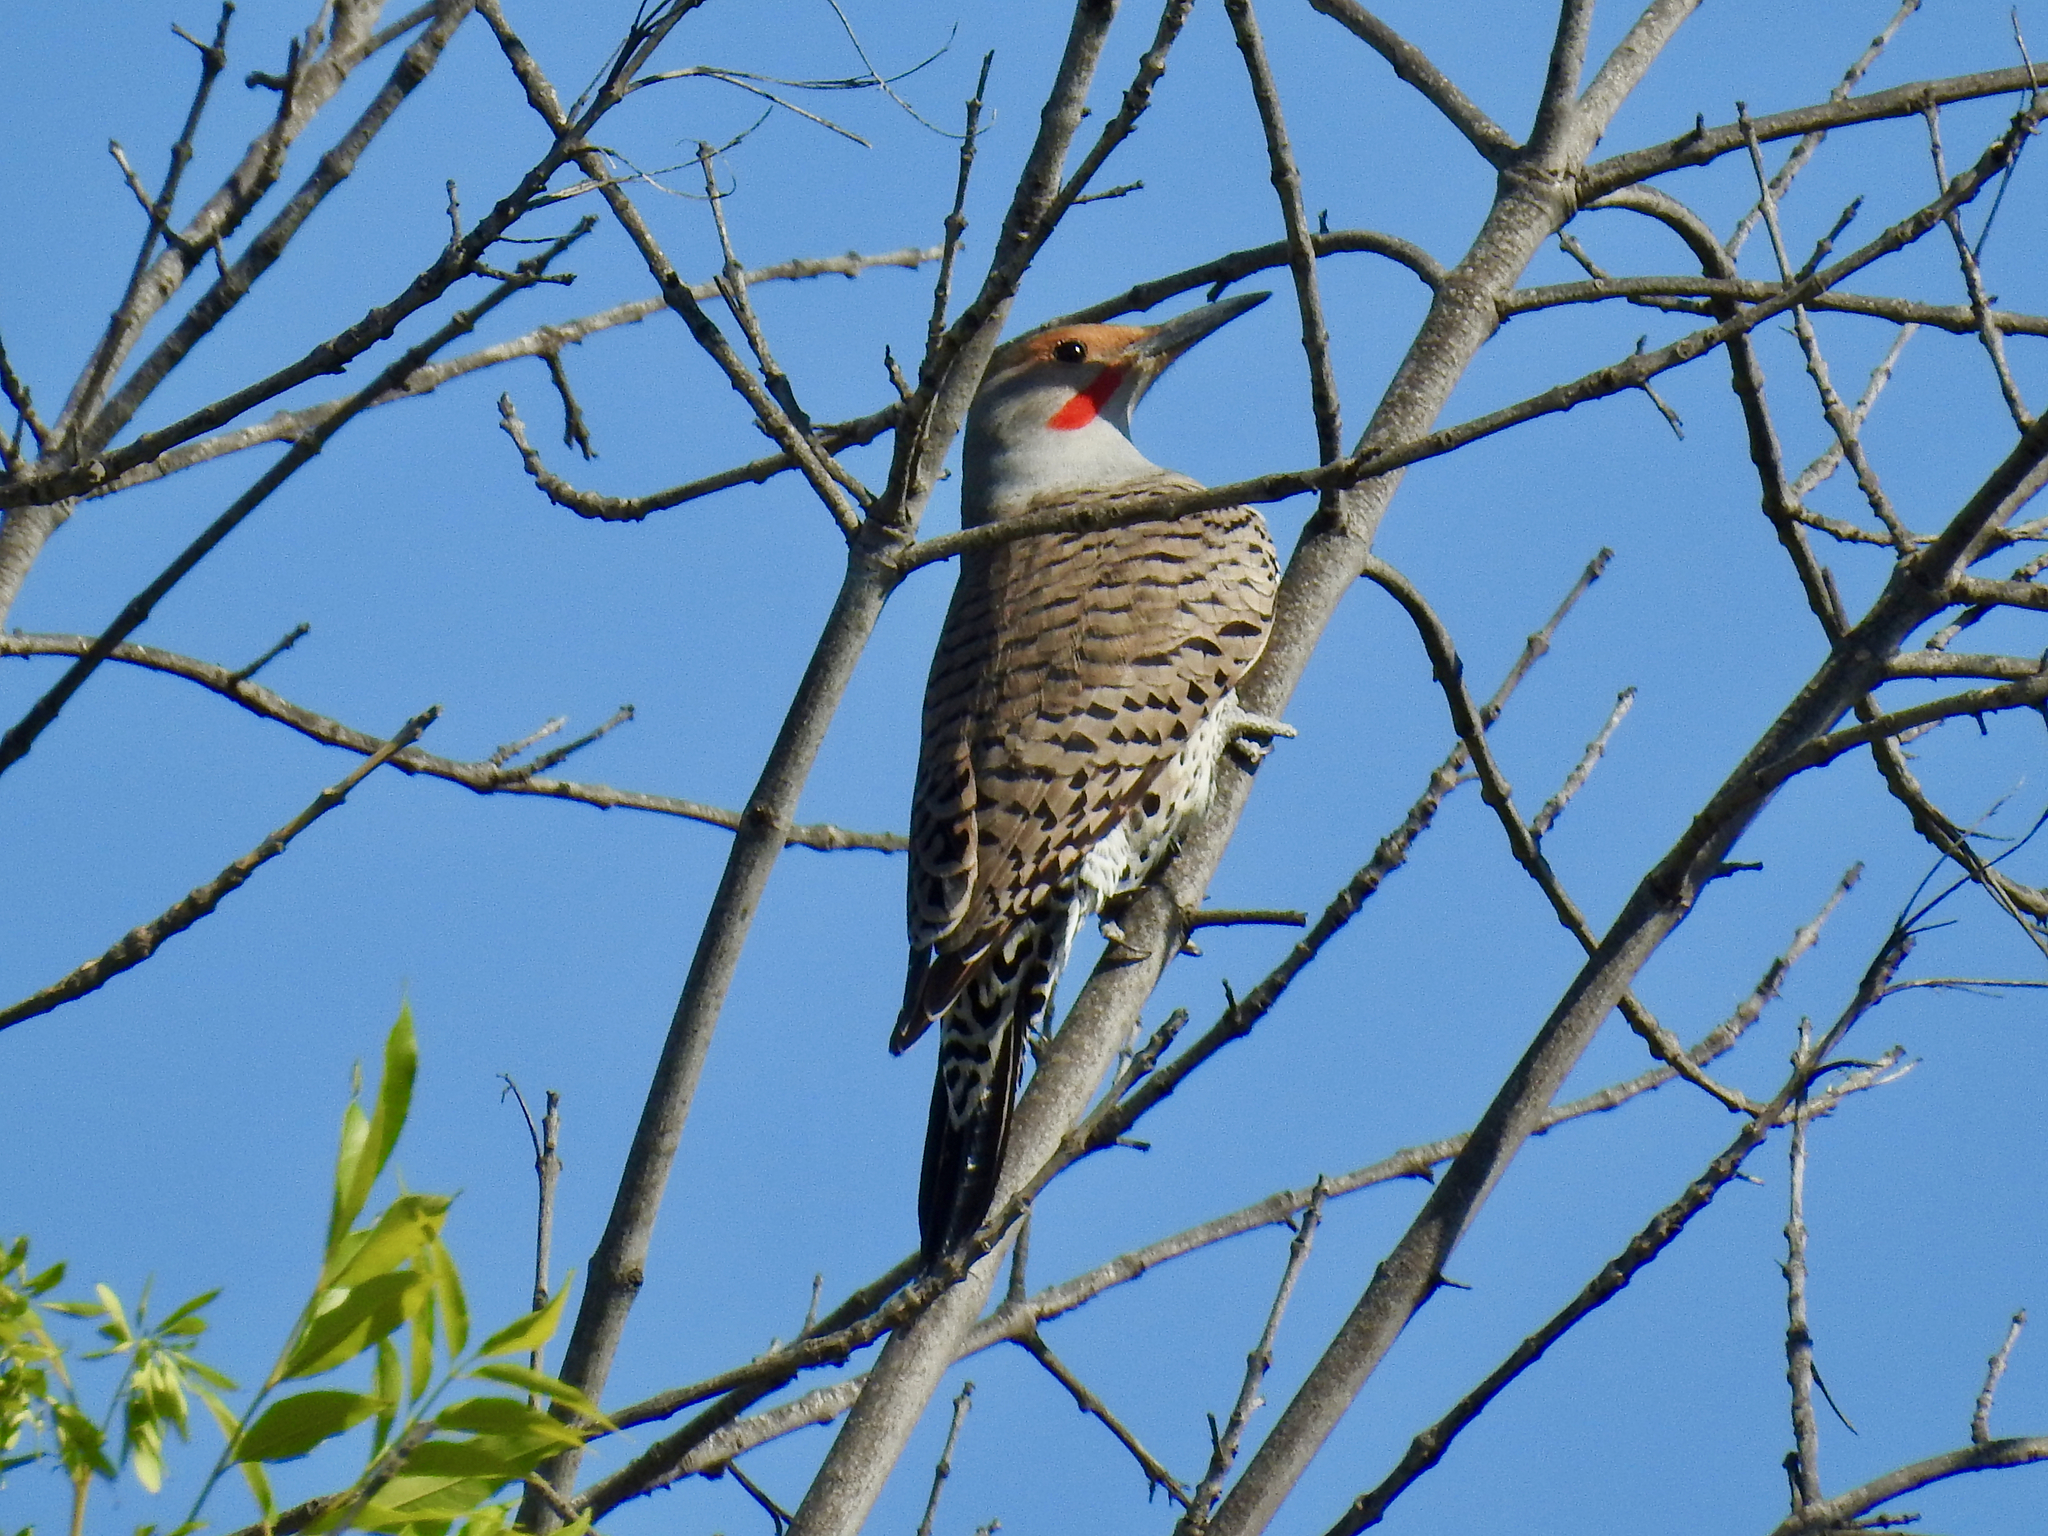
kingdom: Animalia
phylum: Chordata
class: Aves
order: Piciformes
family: Picidae
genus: Colaptes
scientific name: Colaptes auratus
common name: Northern flicker
